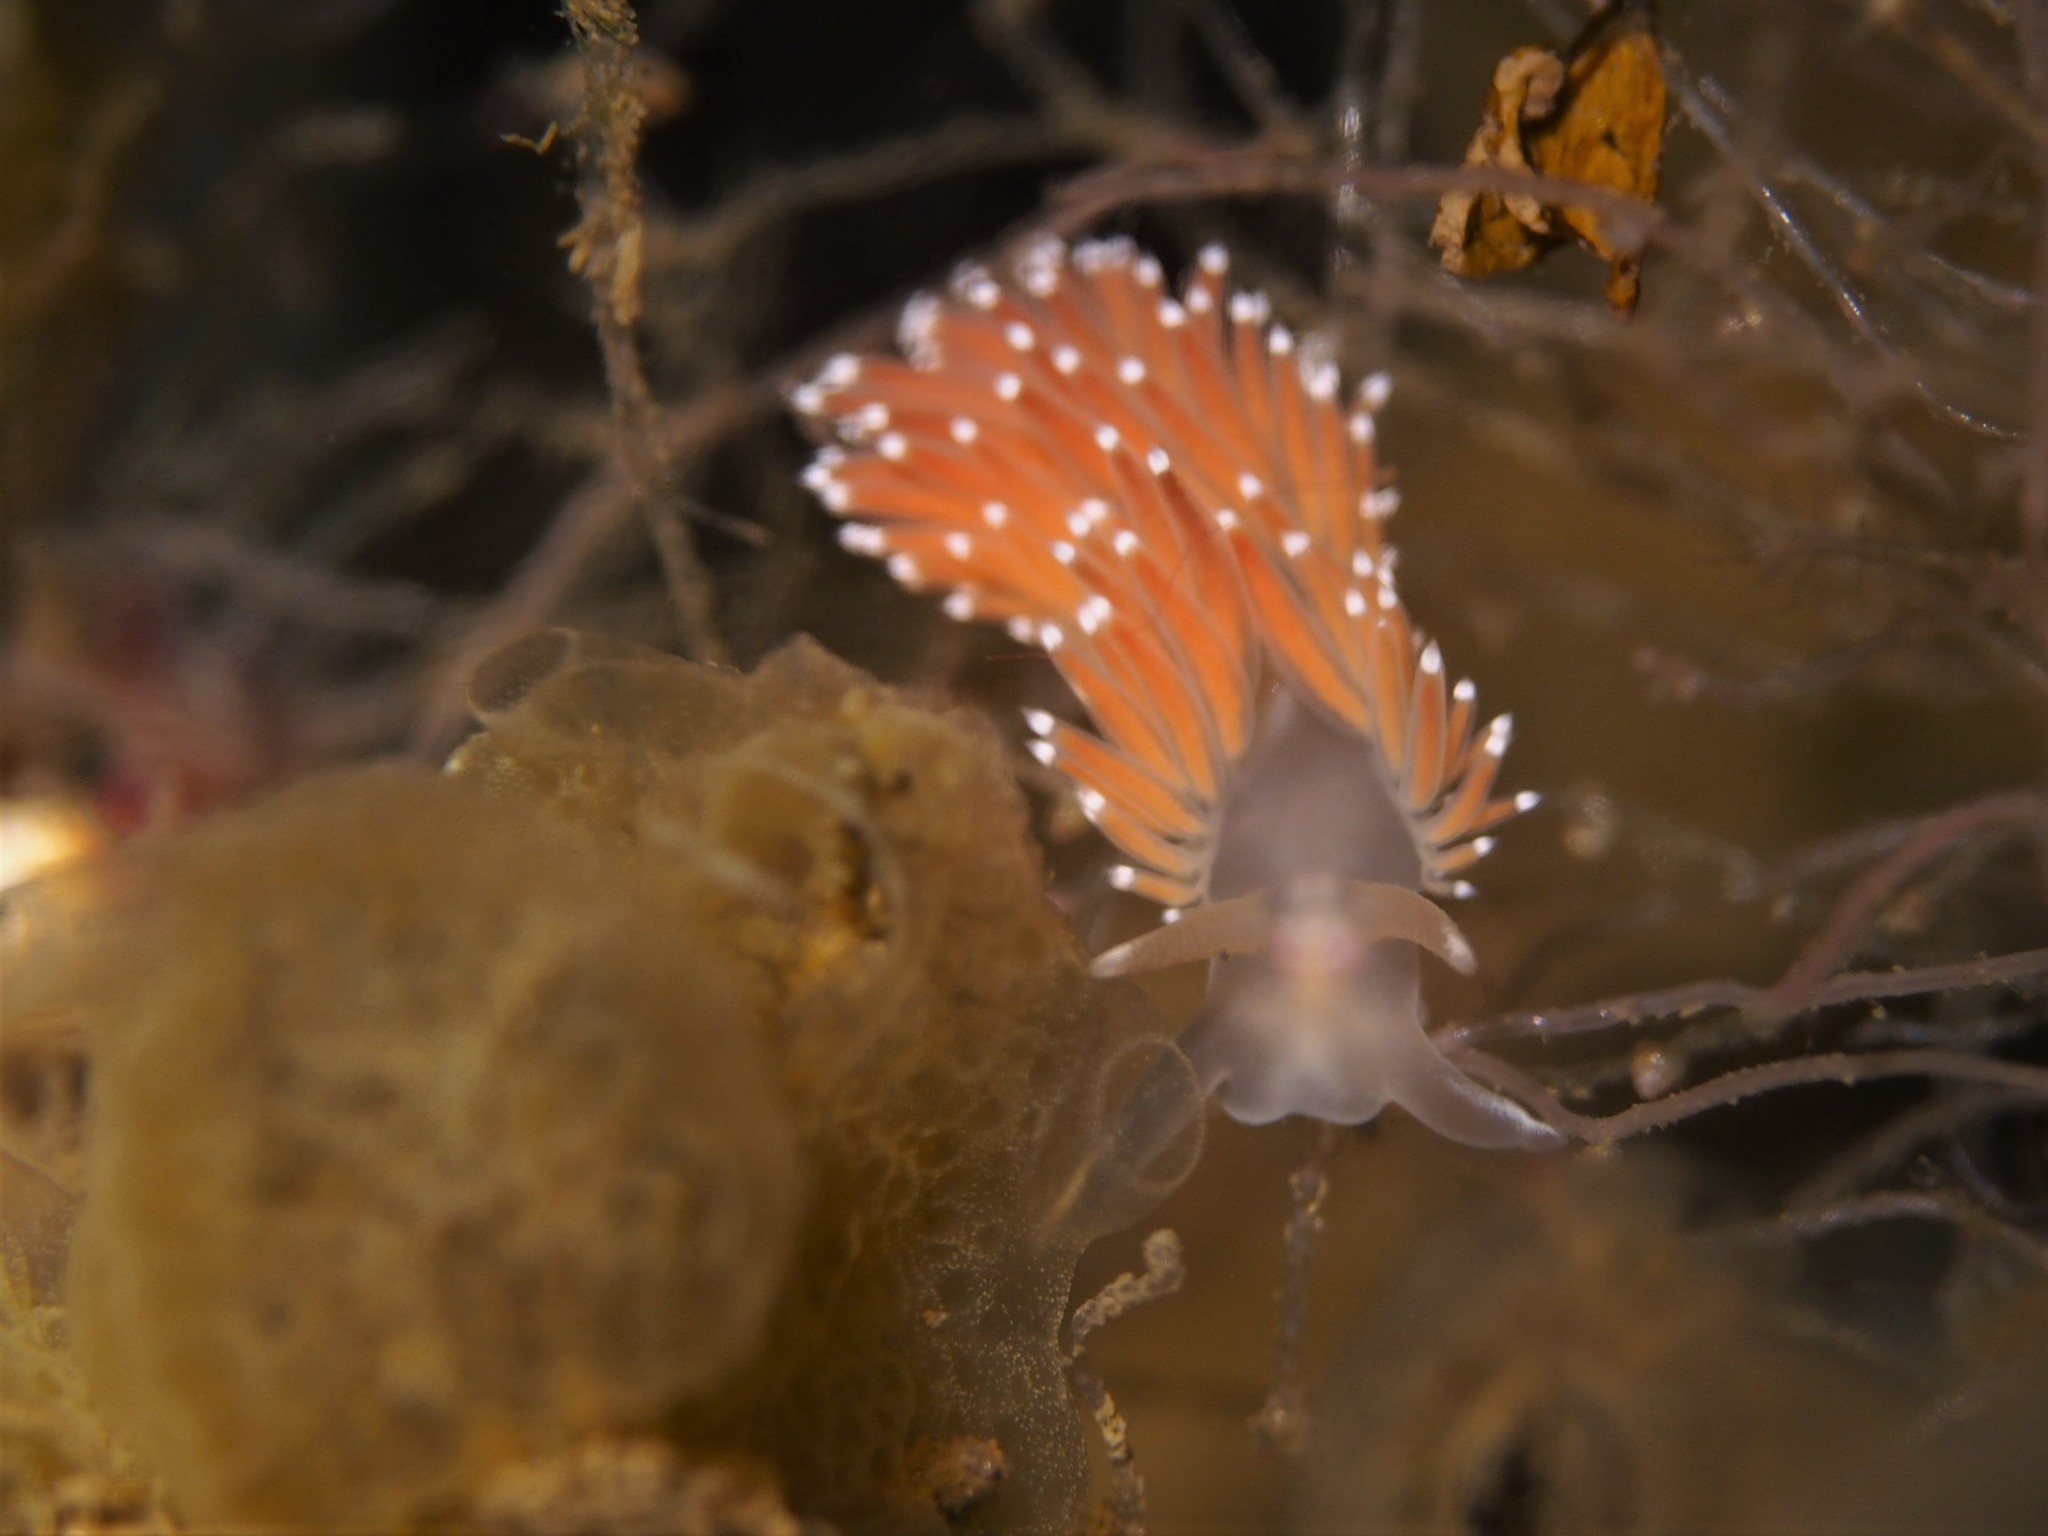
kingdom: Animalia
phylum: Mollusca
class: Gastropoda
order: Nudibranchia
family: Coryphellidae
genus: Coryphella
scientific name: Coryphella verrucosa
